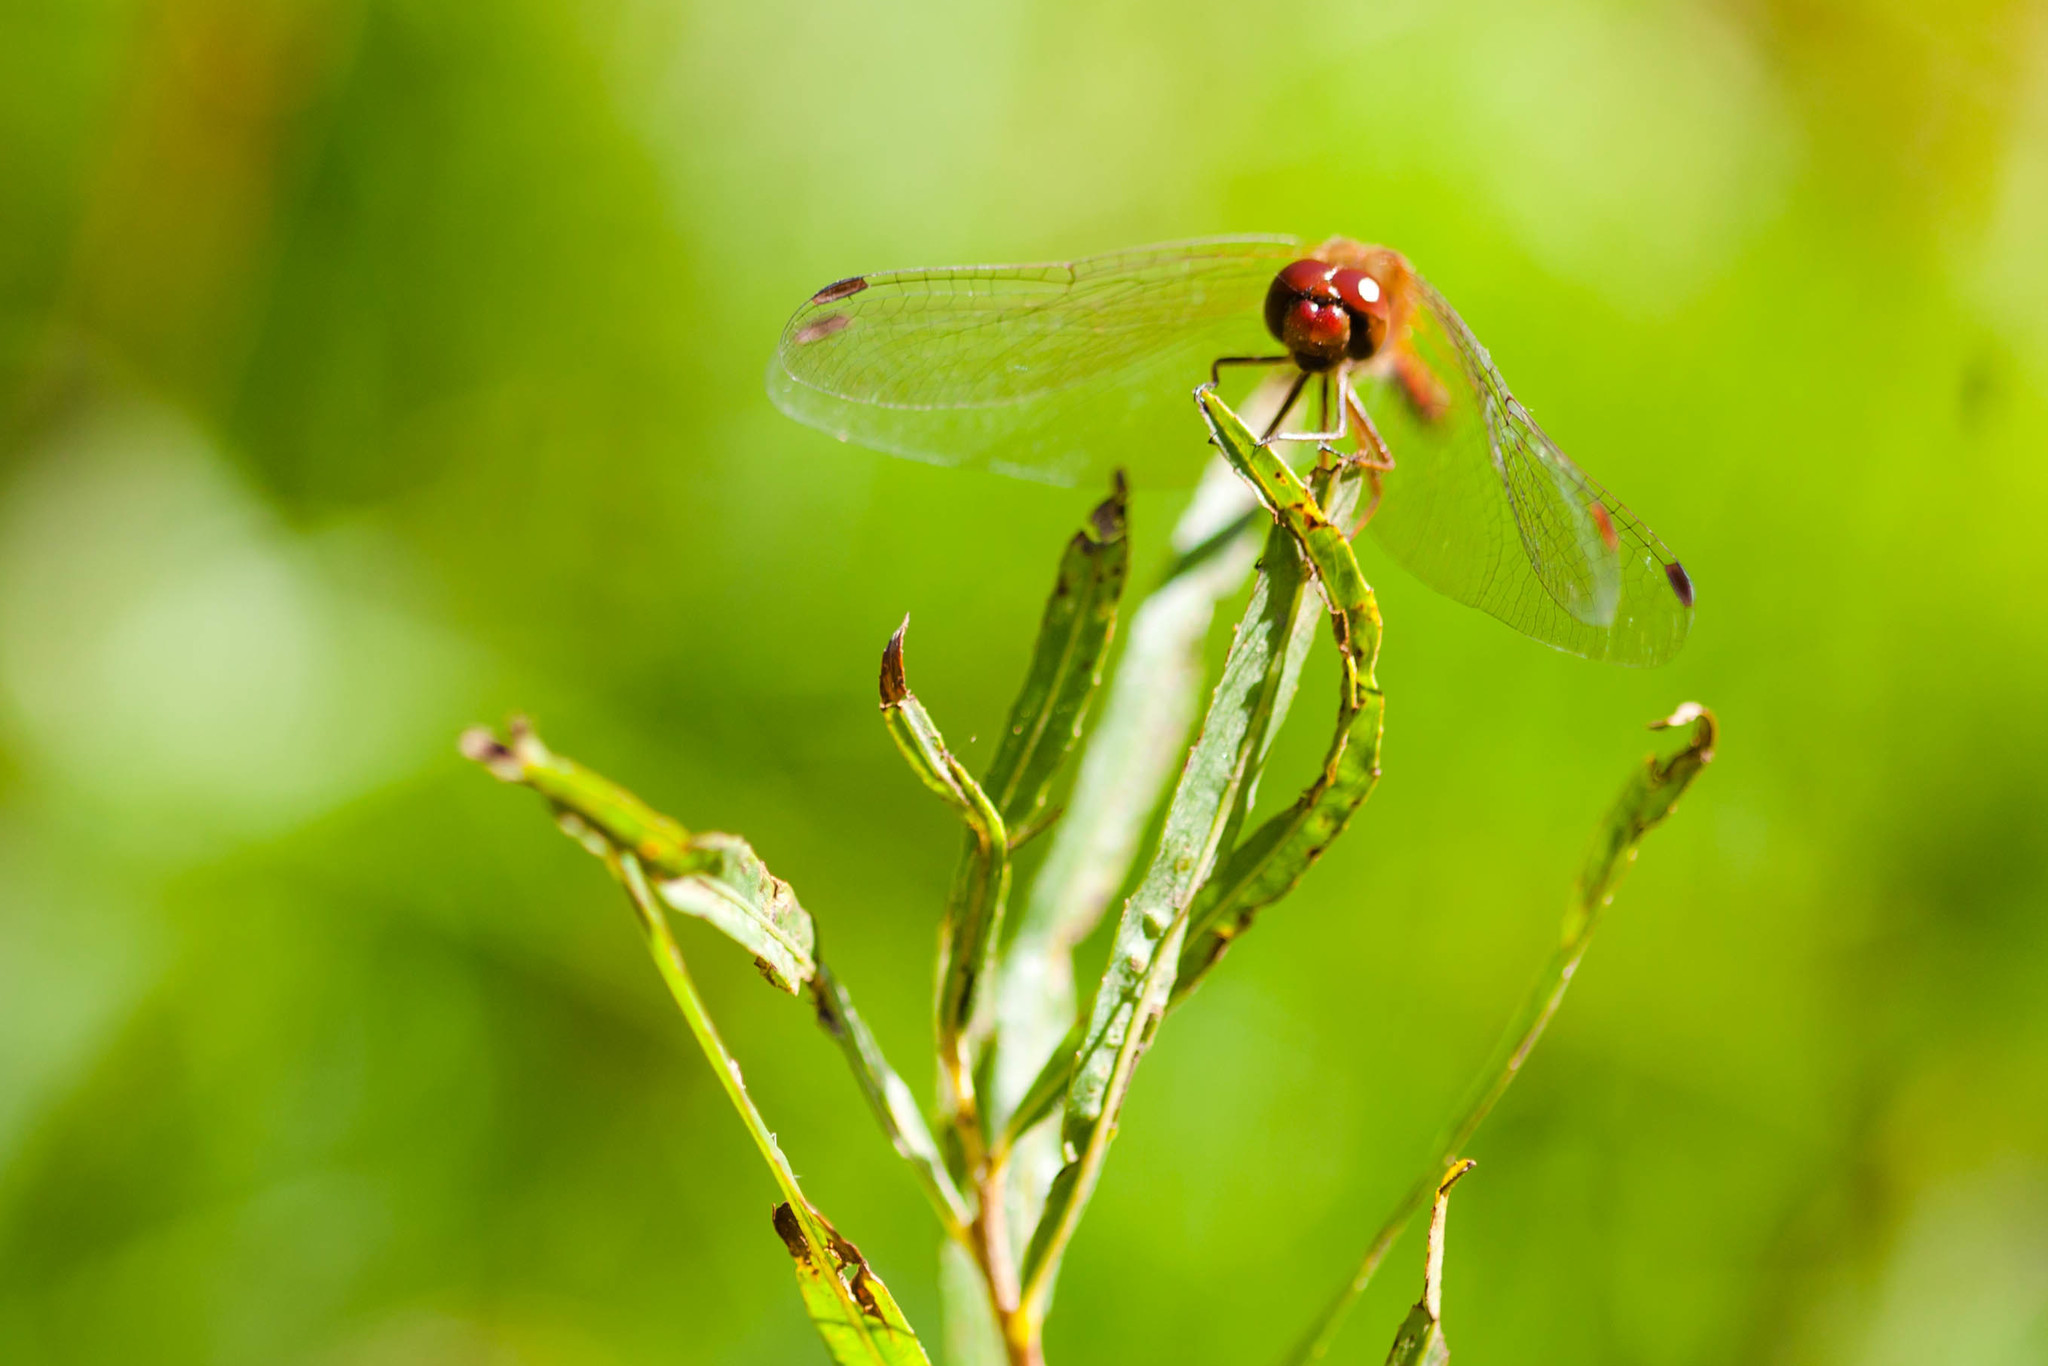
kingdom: Animalia
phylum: Arthropoda
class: Insecta
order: Odonata
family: Libellulidae
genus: Sympetrum
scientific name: Sympetrum vicinum
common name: Autumn meadowhawk
